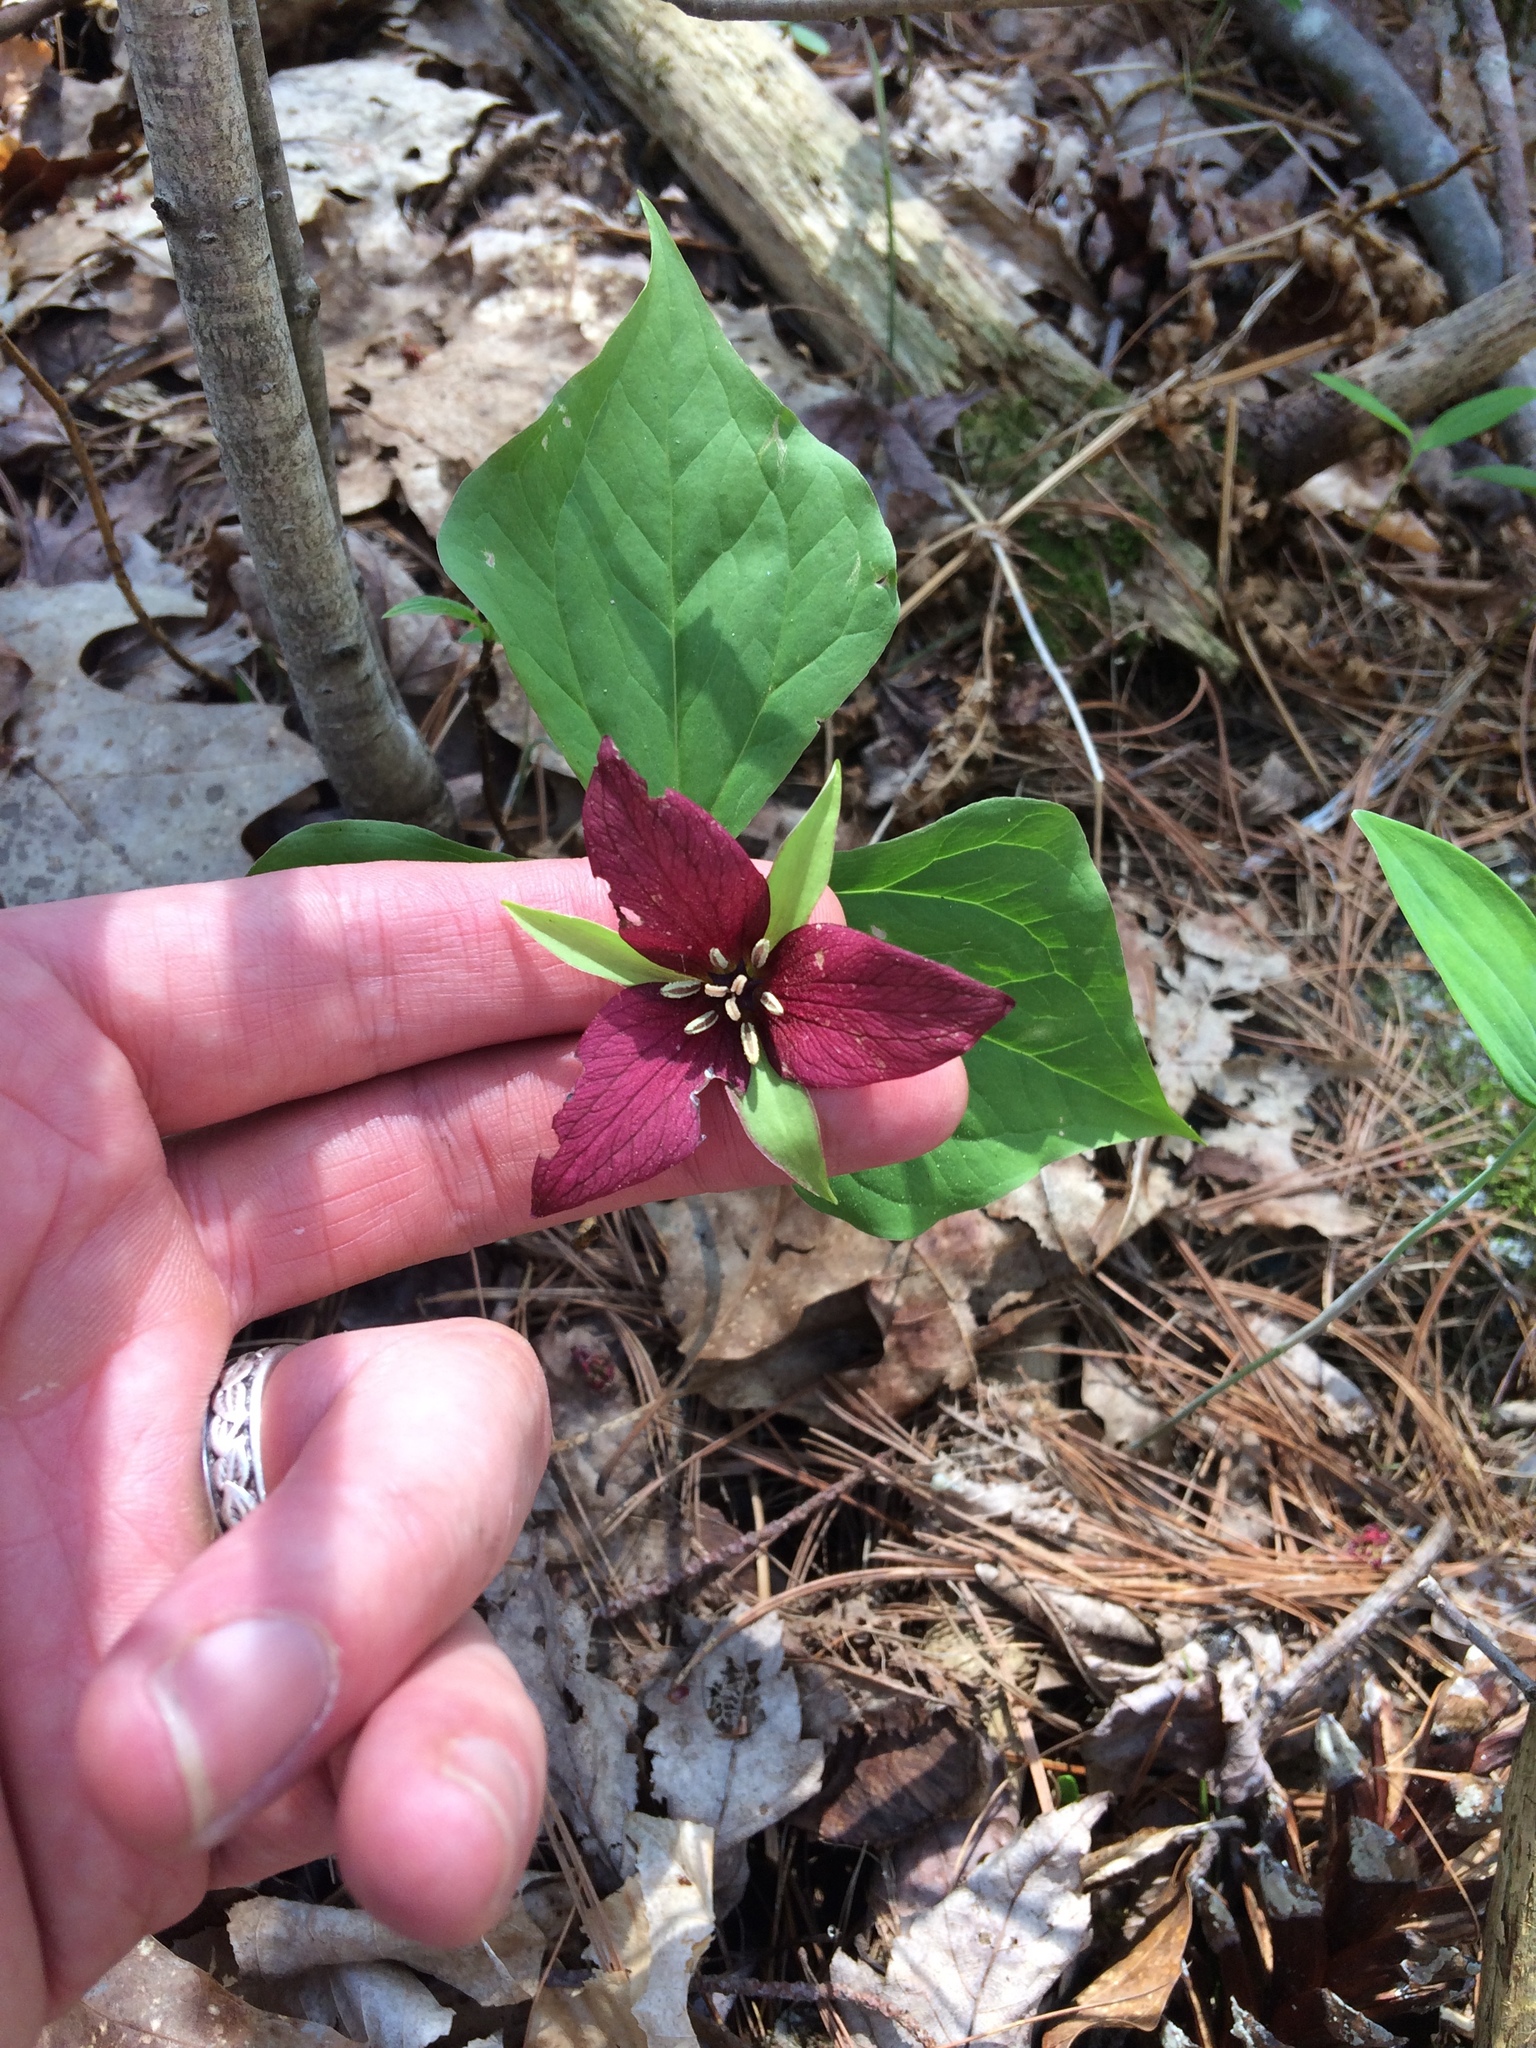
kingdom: Plantae
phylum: Tracheophyta
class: Liliopsida
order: Liliales
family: Melanthiaceae
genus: Trillium
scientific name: Trillium erectum
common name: Purple trillium
